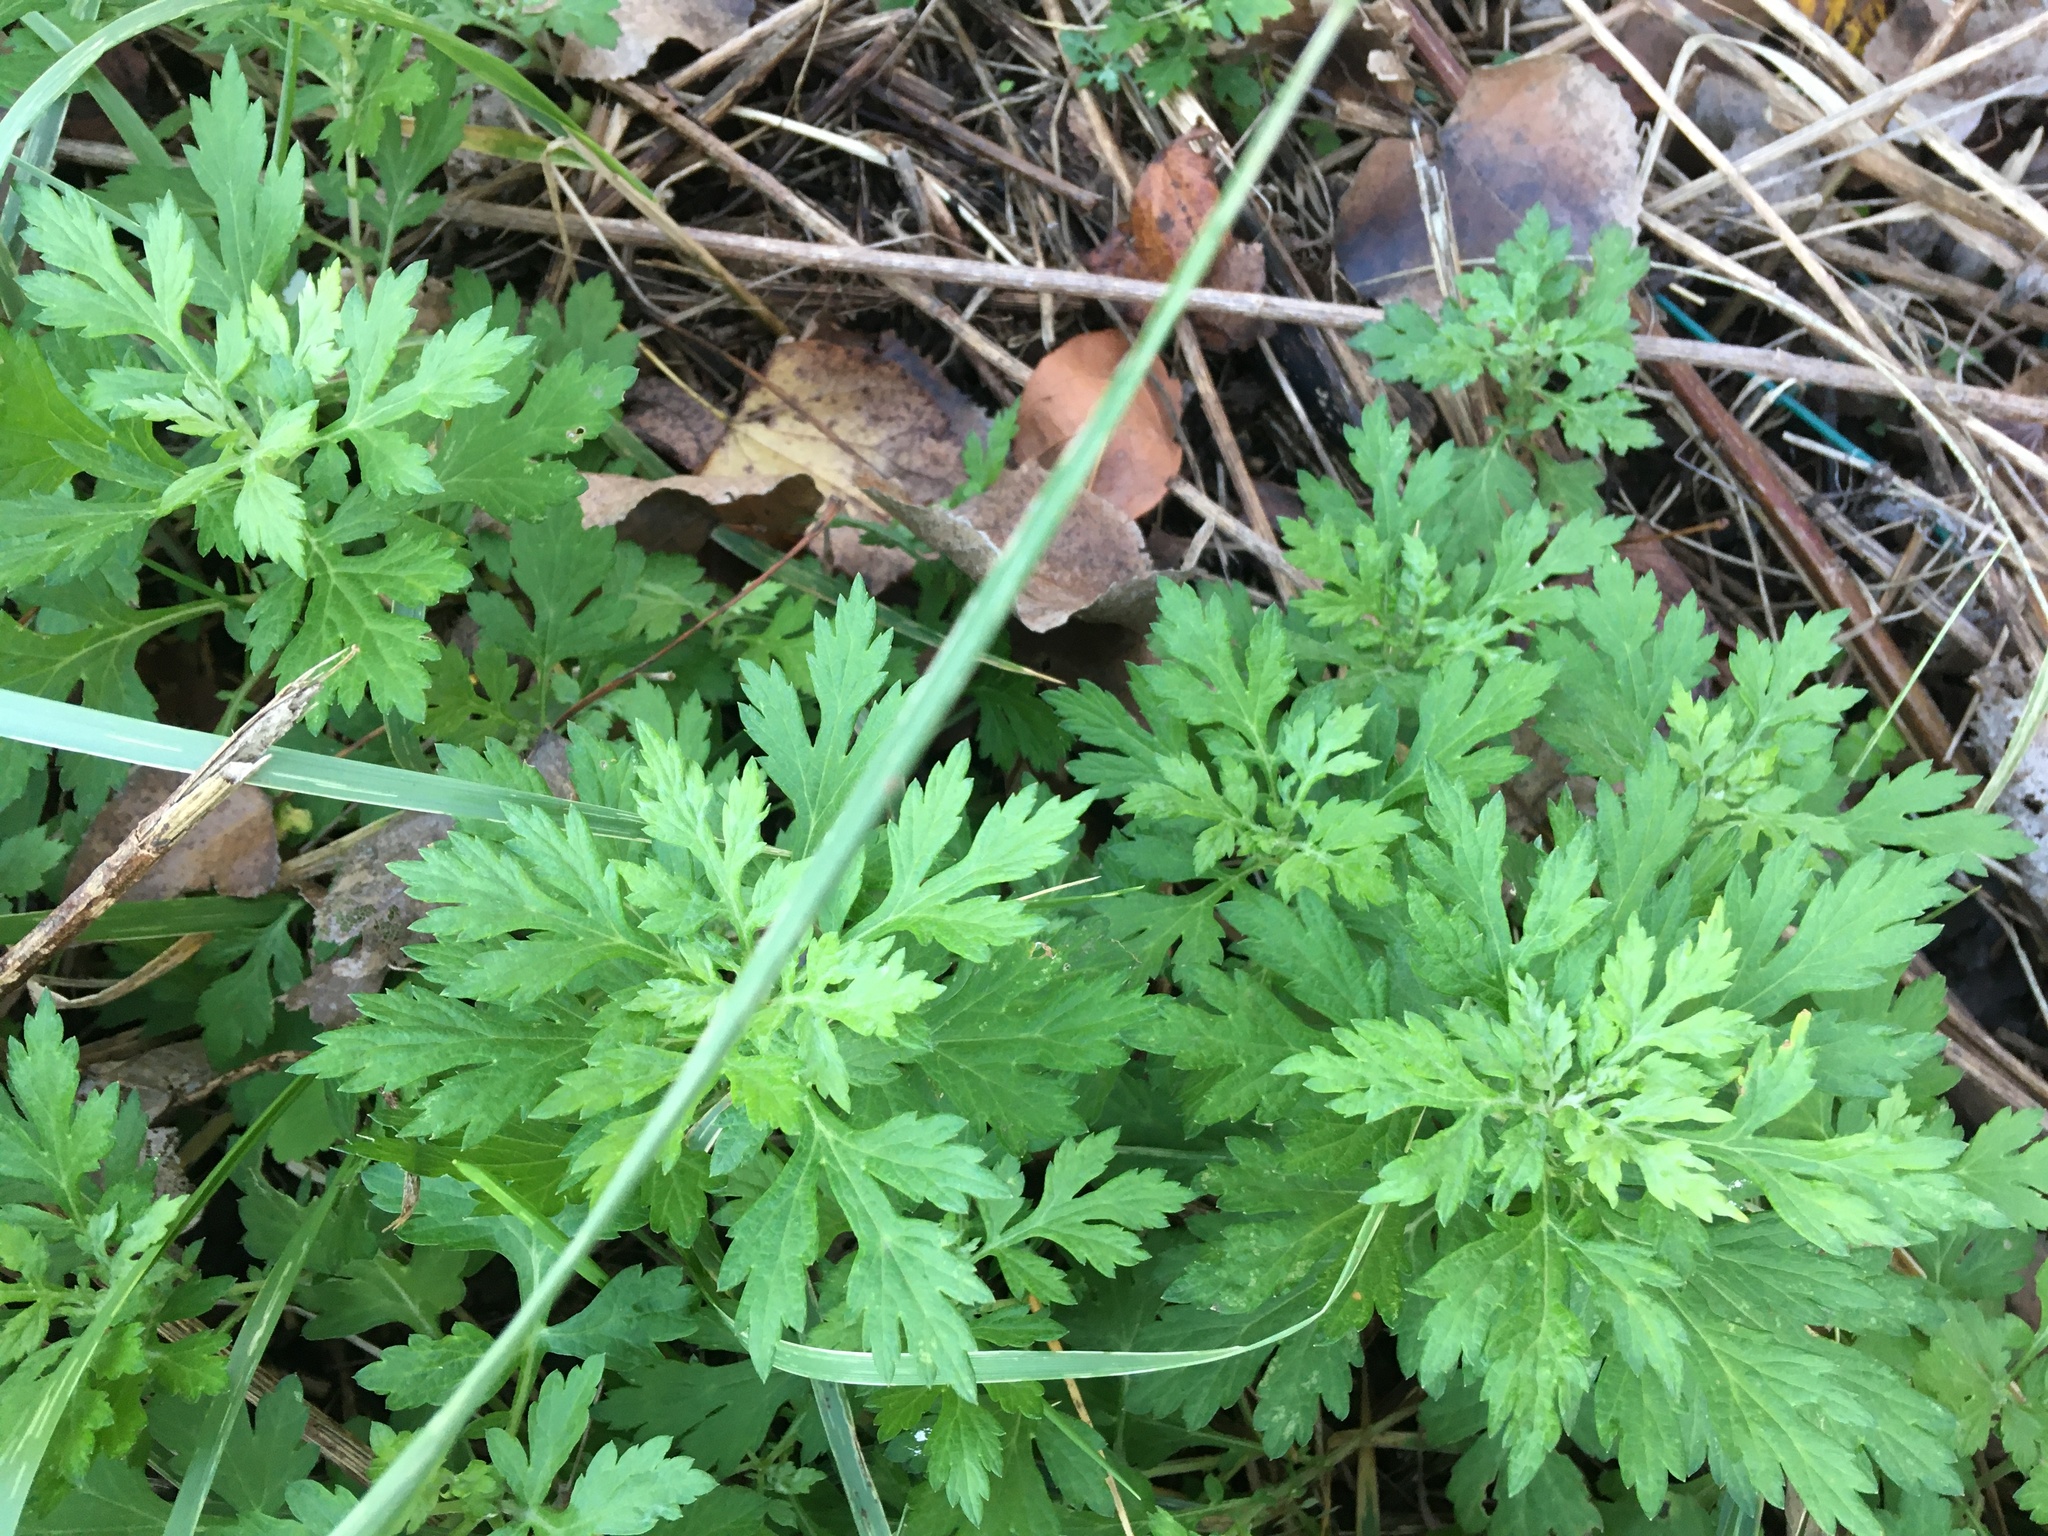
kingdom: Plantae
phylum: Tracheophyta
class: Magnoliopsida
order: Asterales
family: Asteraceae
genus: Artemisia
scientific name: Artemisia vulgaris
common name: Mugwort
